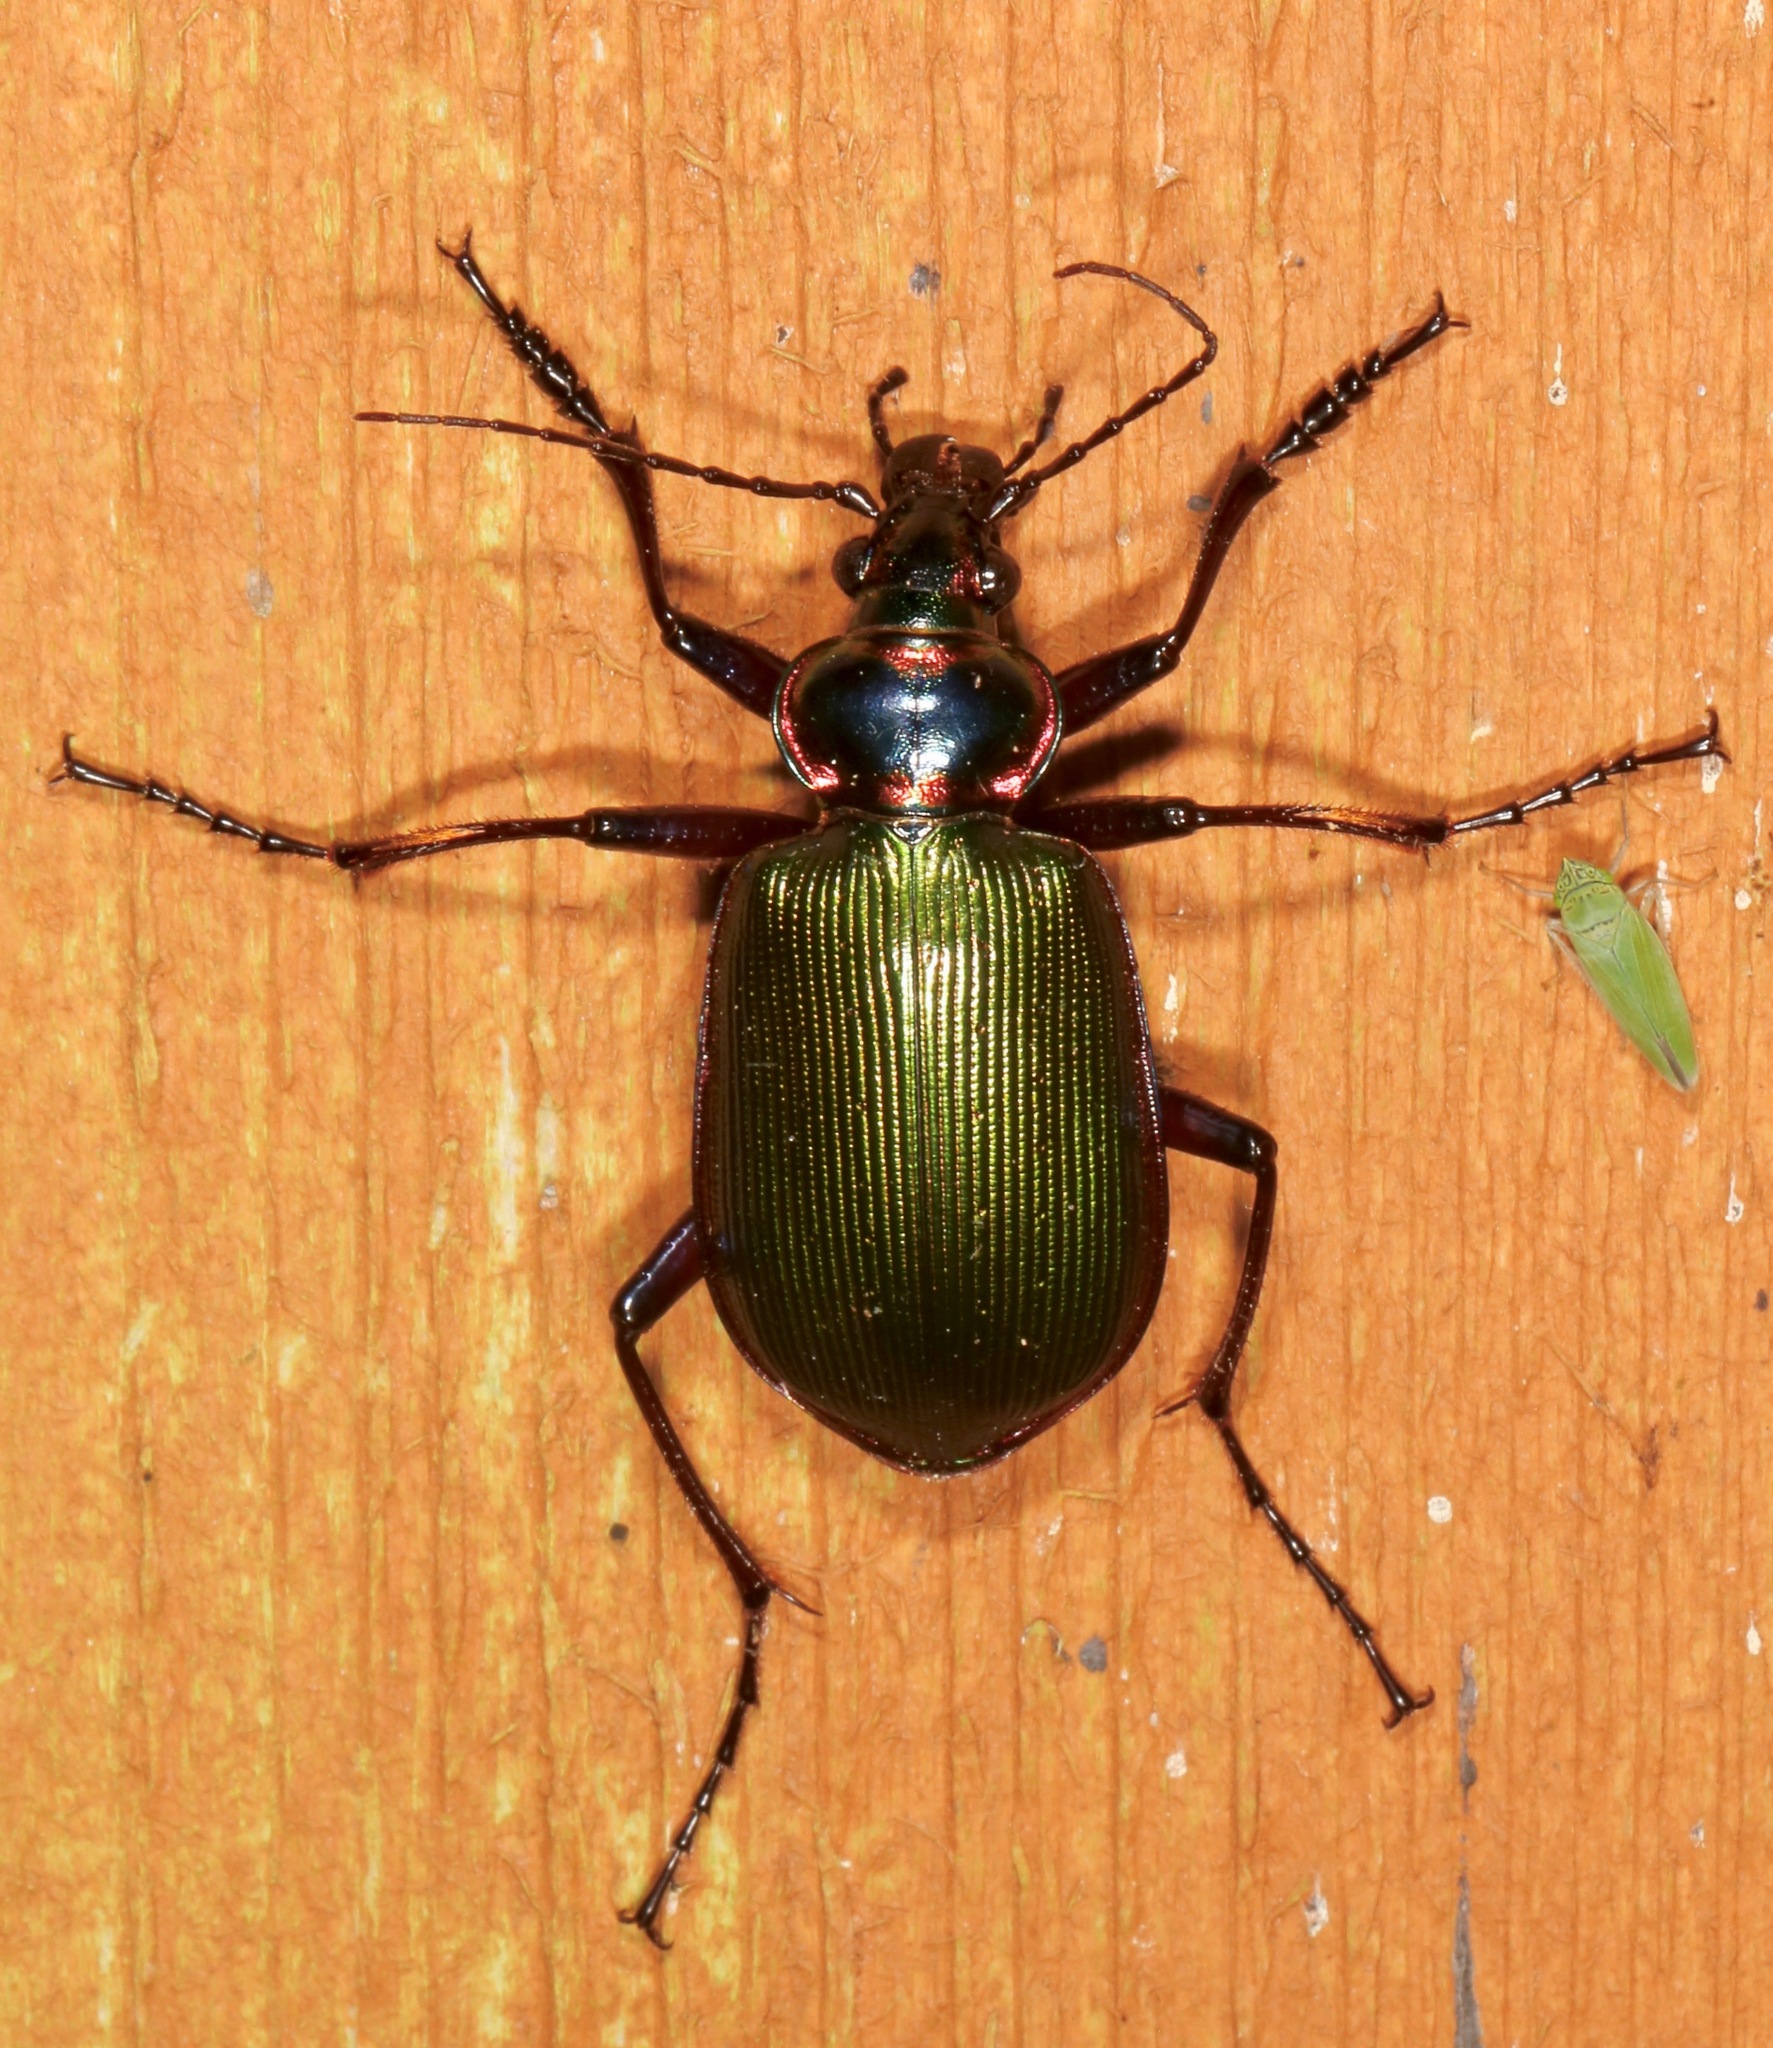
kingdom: Animalia
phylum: Arthropoda
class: Insecta
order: Coleoptera
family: Carabidae
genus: Calosoma
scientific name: Calosoma scrutator
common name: Fiery searcher beetle
